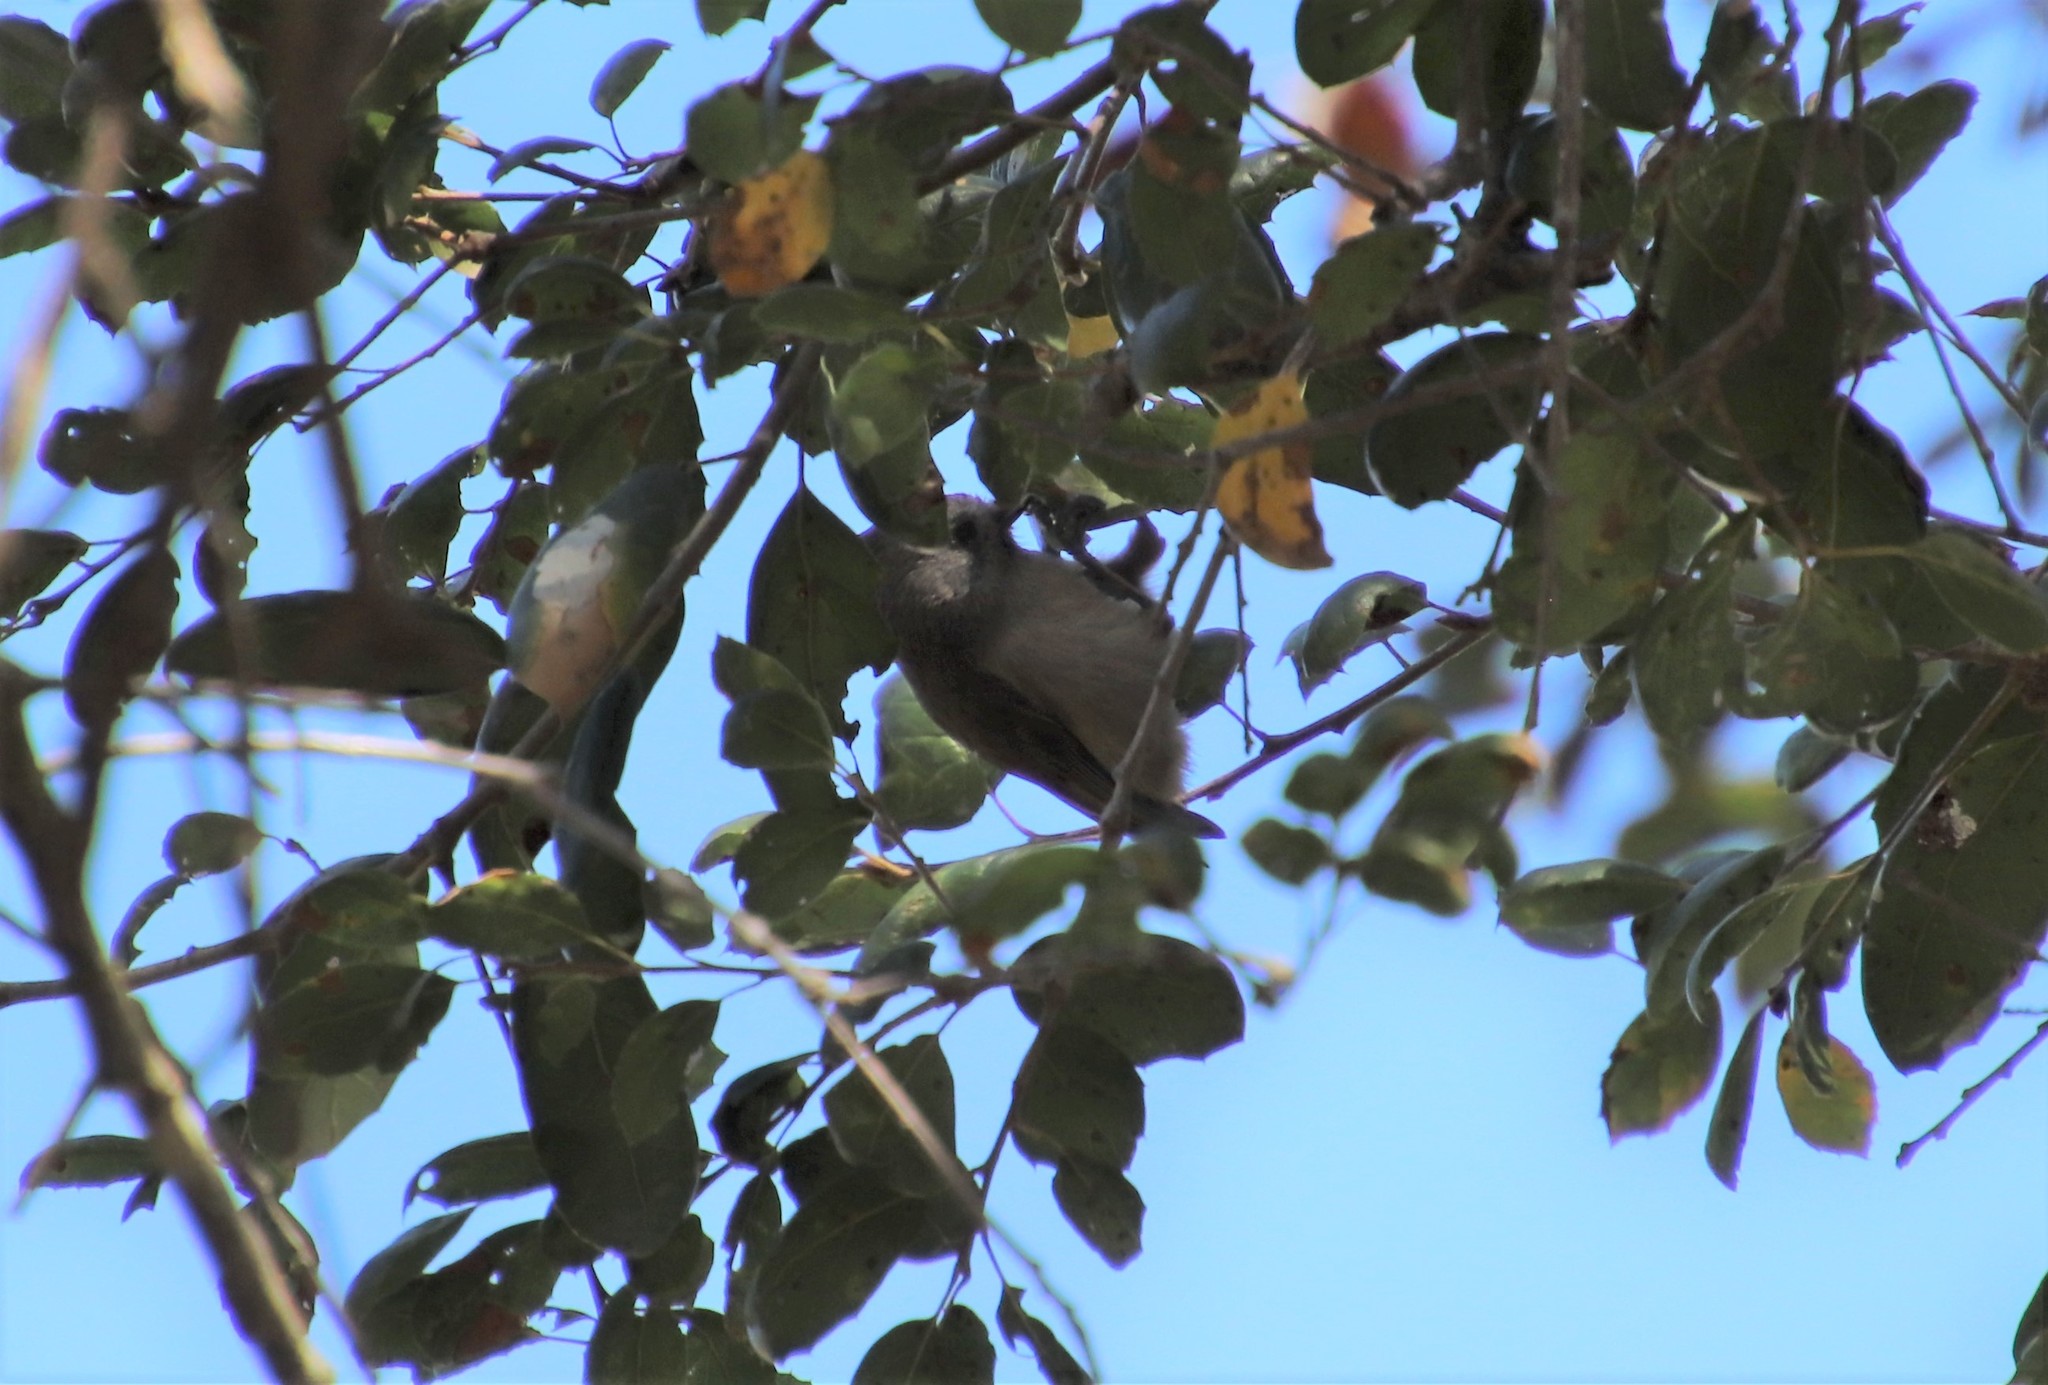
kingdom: Animalia
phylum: Chordata
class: Aves
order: Passeriformes
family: Paridae
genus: Baeolophus
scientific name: Baeolophus inornatus
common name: Oak titmouse
